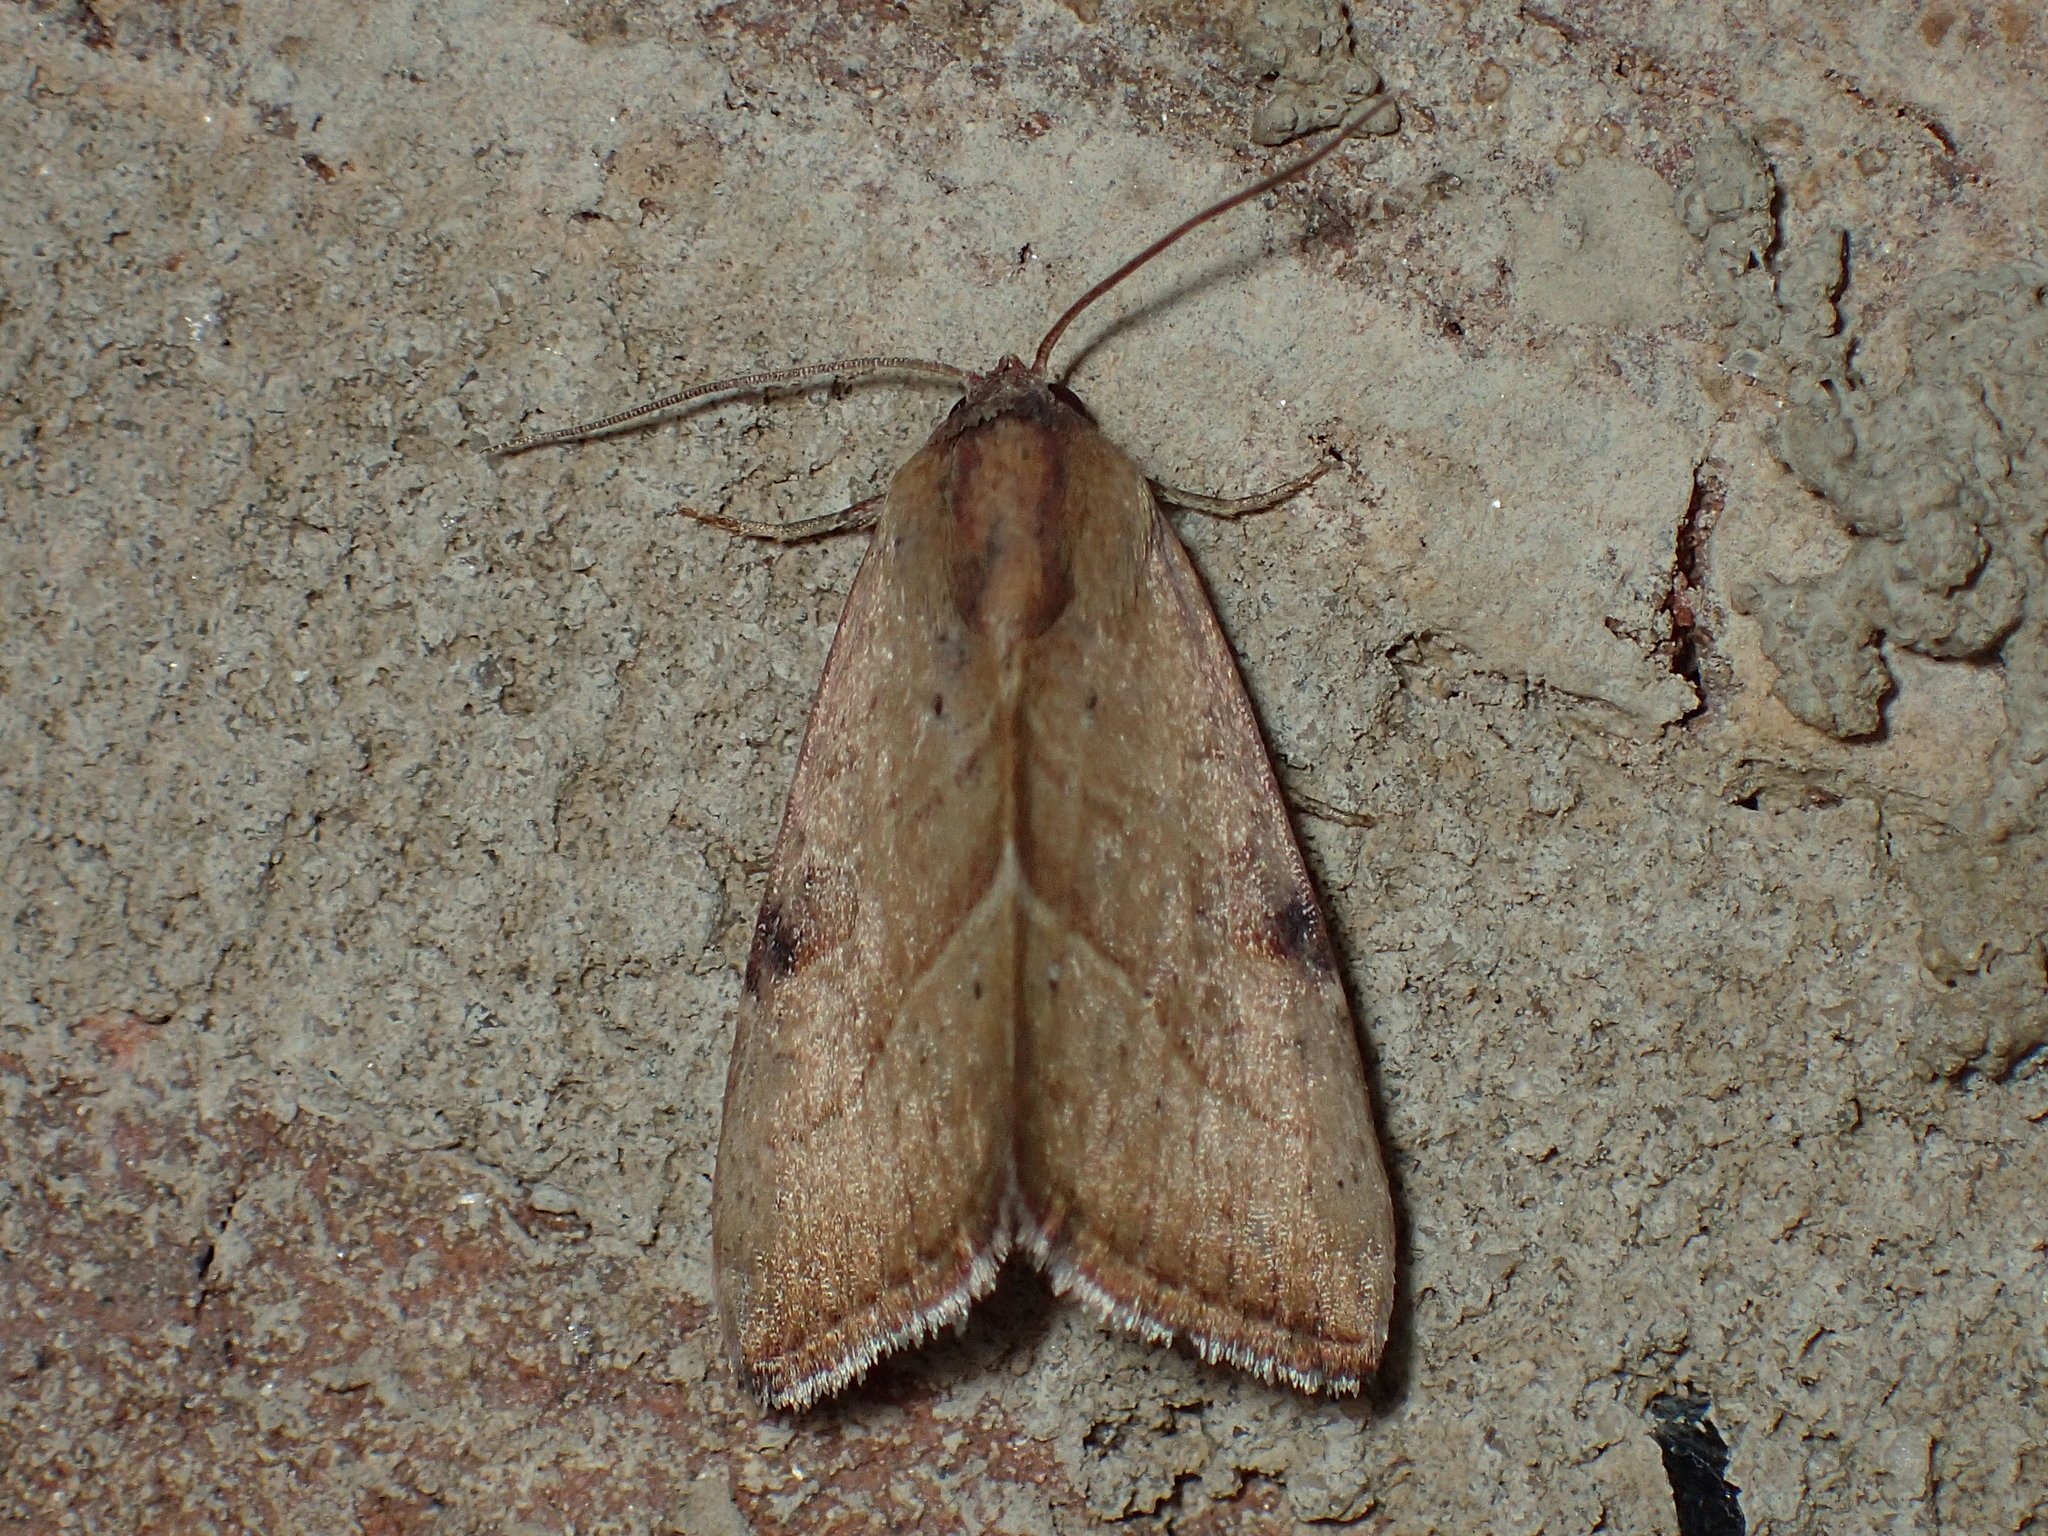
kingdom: Animalia
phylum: Arthropoda
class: Insecta
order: Lepidoptera
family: Noctuidae
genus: Galgula
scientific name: Galgula partita
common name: Wedgeling
